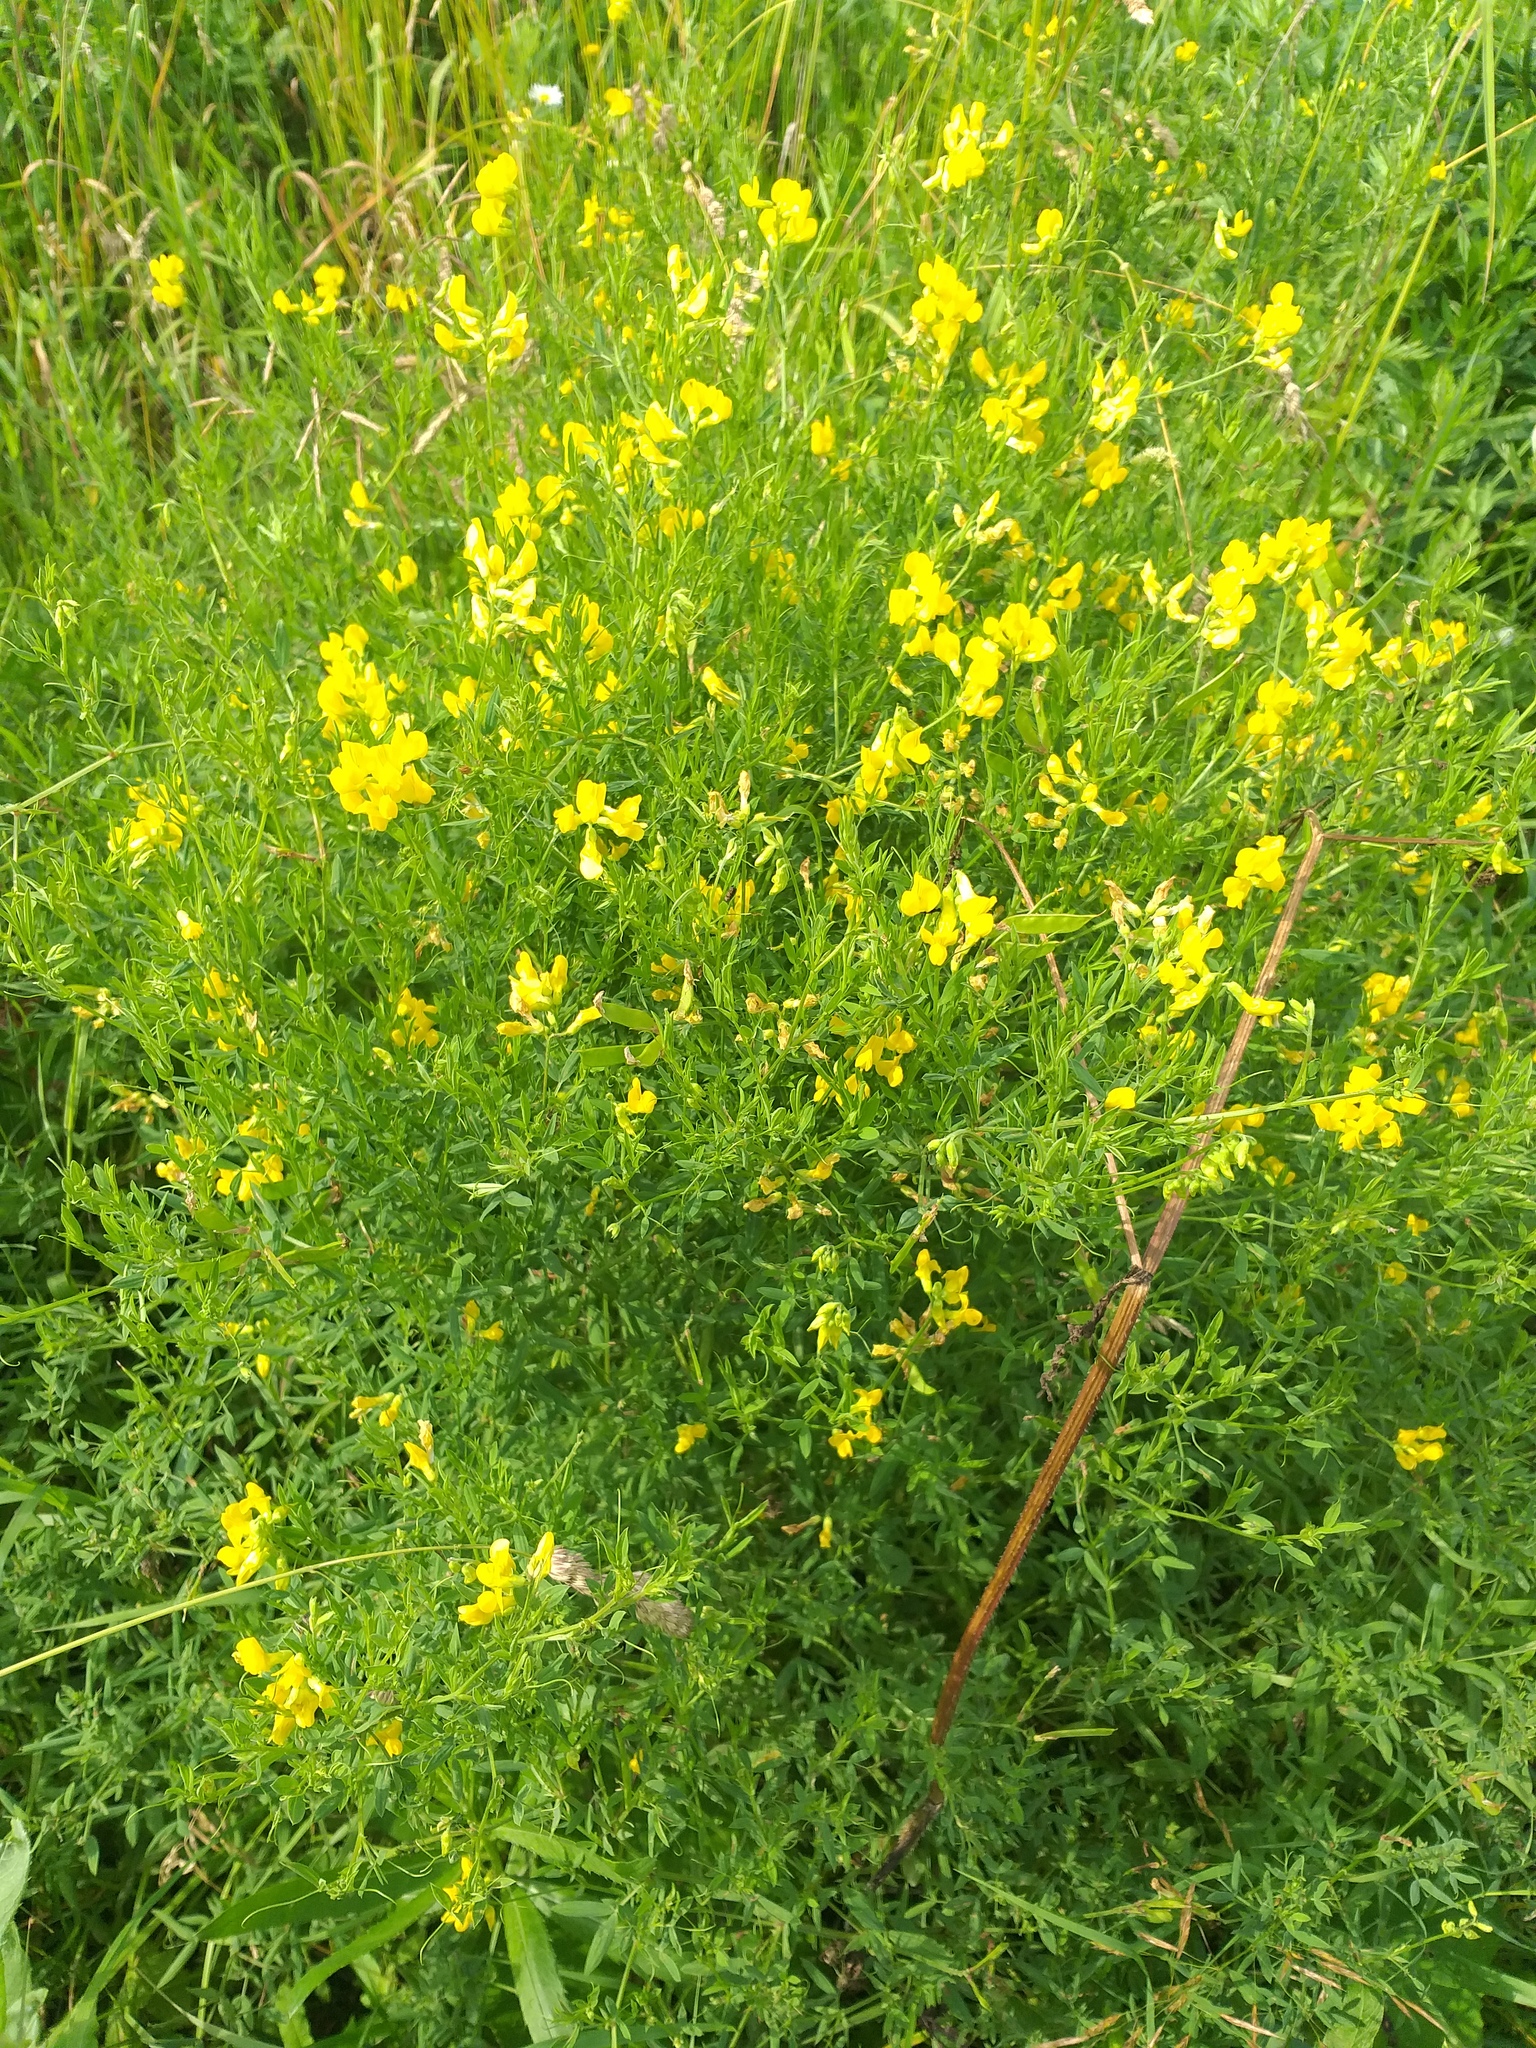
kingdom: Plantae
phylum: Tracheophyta
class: Magnoliopsida
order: Fabales
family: Fabaceae
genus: Lathyrus
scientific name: Lathyrus pratensis
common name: Meadow vetchling
